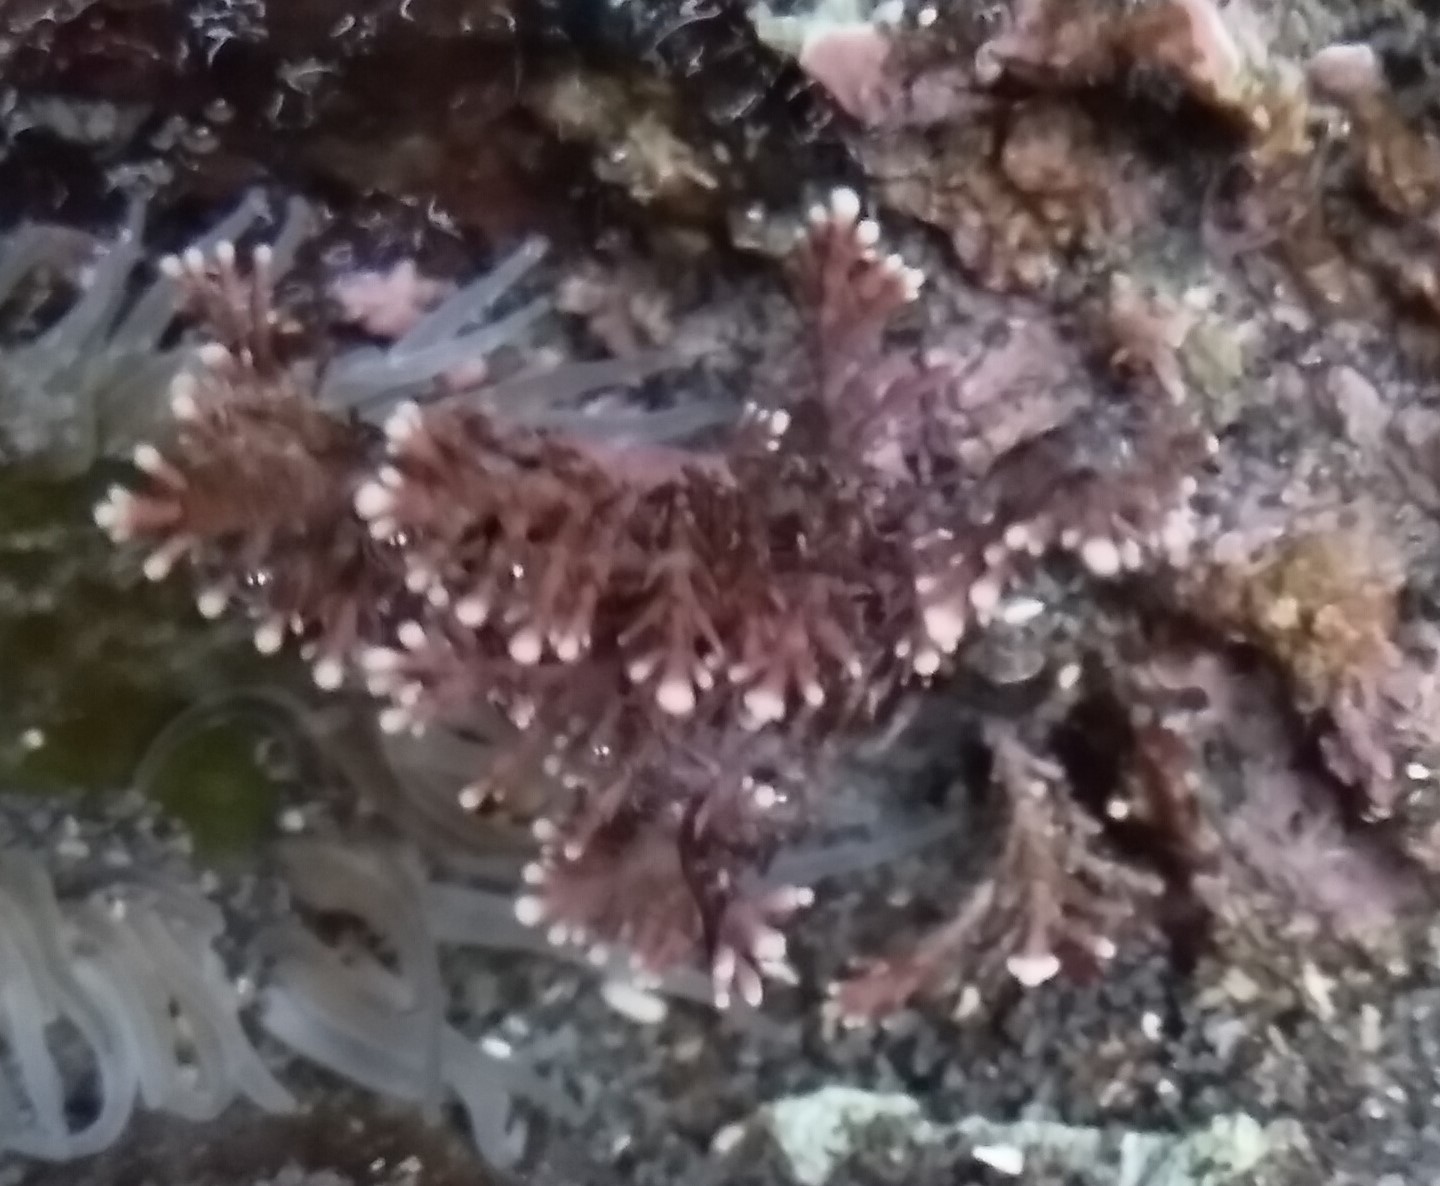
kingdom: Plantae
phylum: Rhodophyta
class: Florideophyceae
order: Corallinales
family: Corallinaceae
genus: Corallina
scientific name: Corallina officinalis
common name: Coral weed
